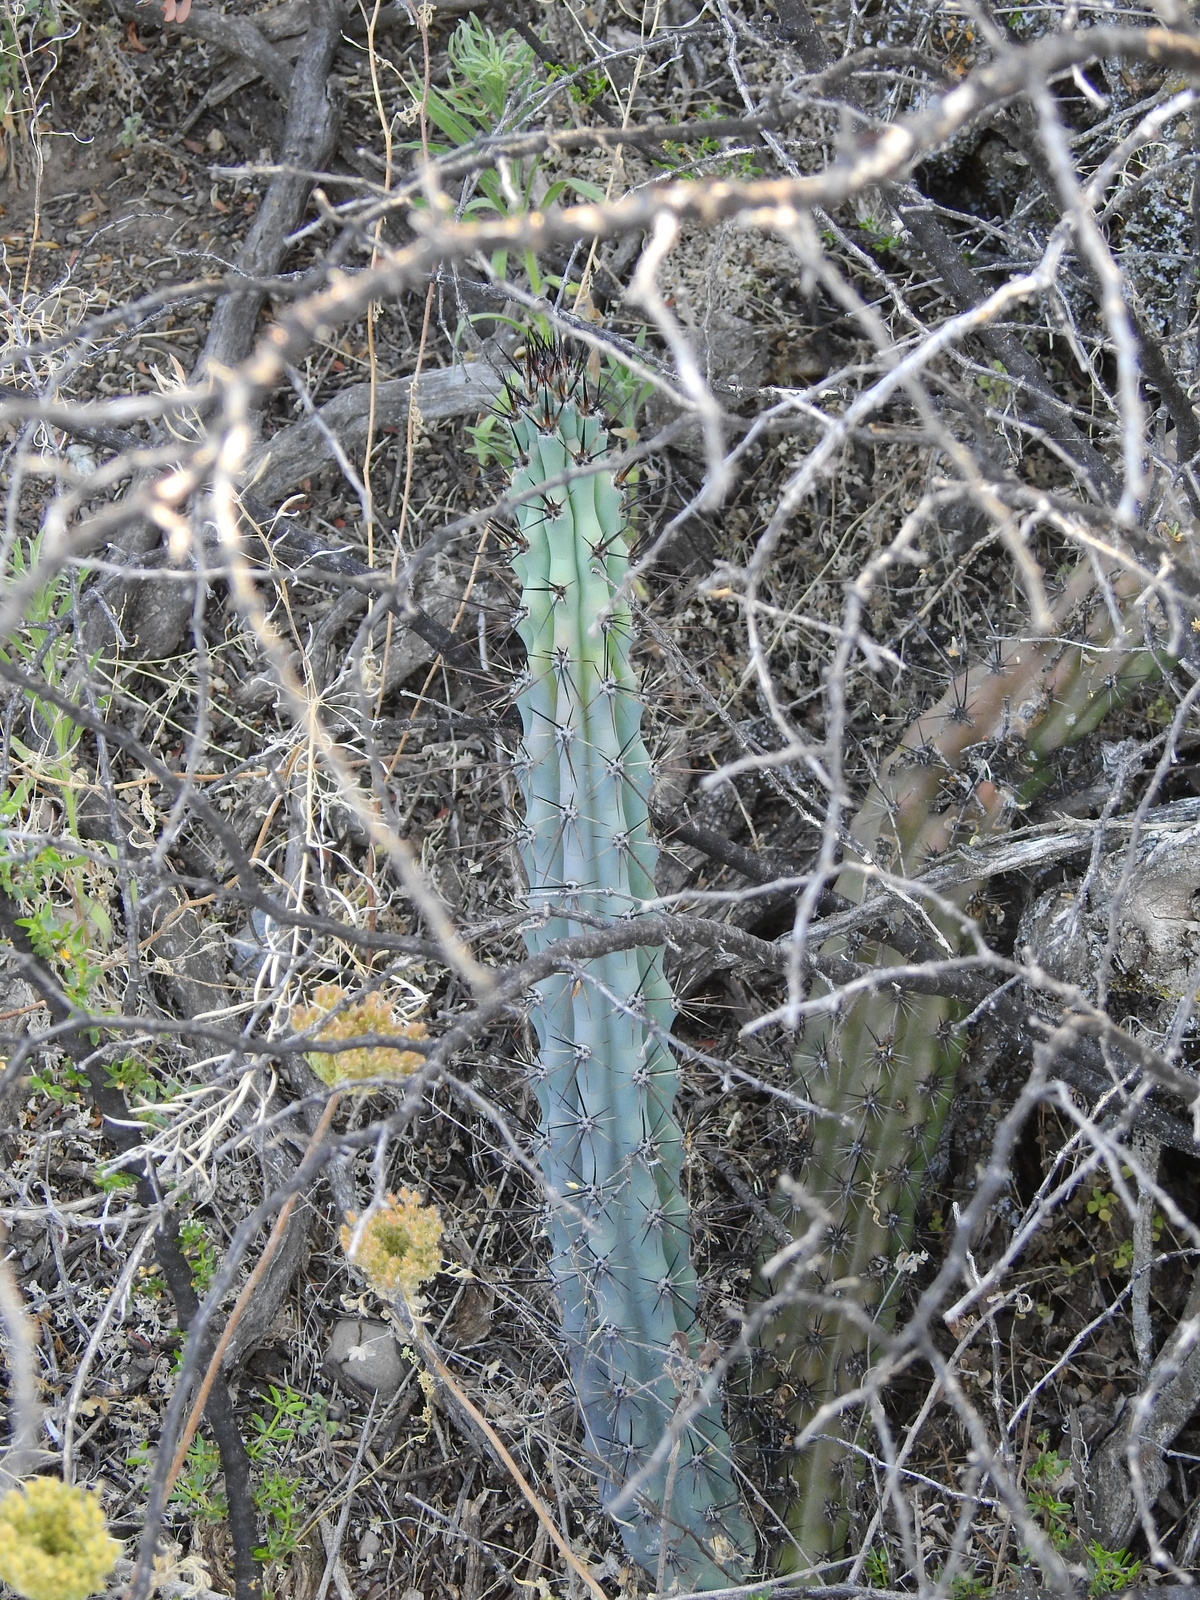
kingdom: Plantae
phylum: Tracheophyta
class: Magnoliopsida
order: Caryophyllales
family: Cactaceae
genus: Cereus
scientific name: Cereus aethiops
